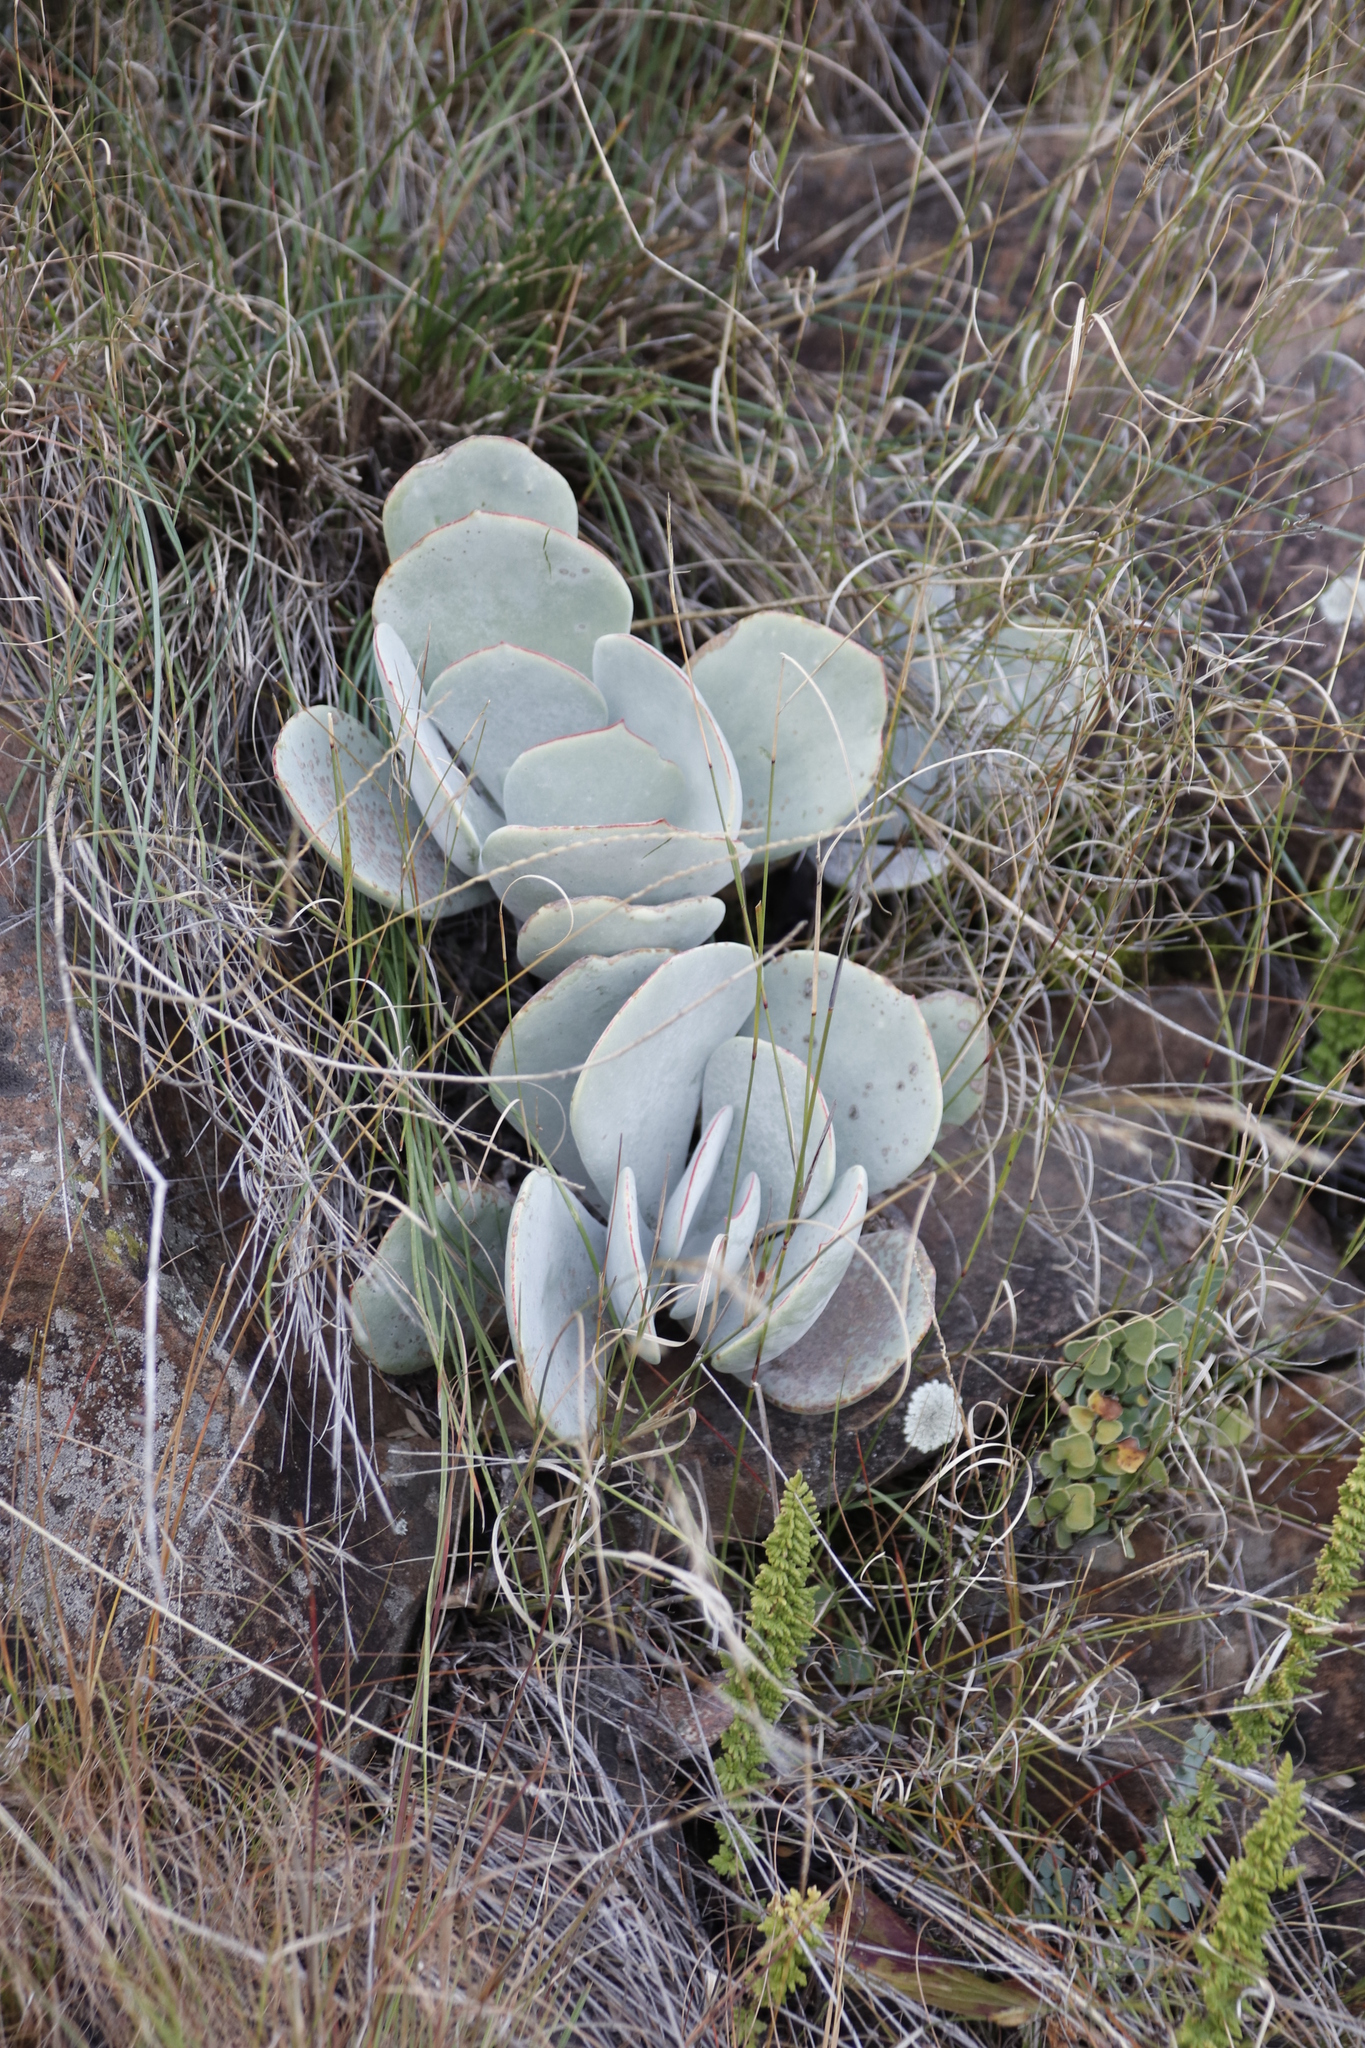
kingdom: Plantae
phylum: Tracheophyta
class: Magnoliopsida
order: Saxifragales
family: Crassulaceae
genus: Cotyledon
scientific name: Cotyledon orbiculata
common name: Pig's ear
